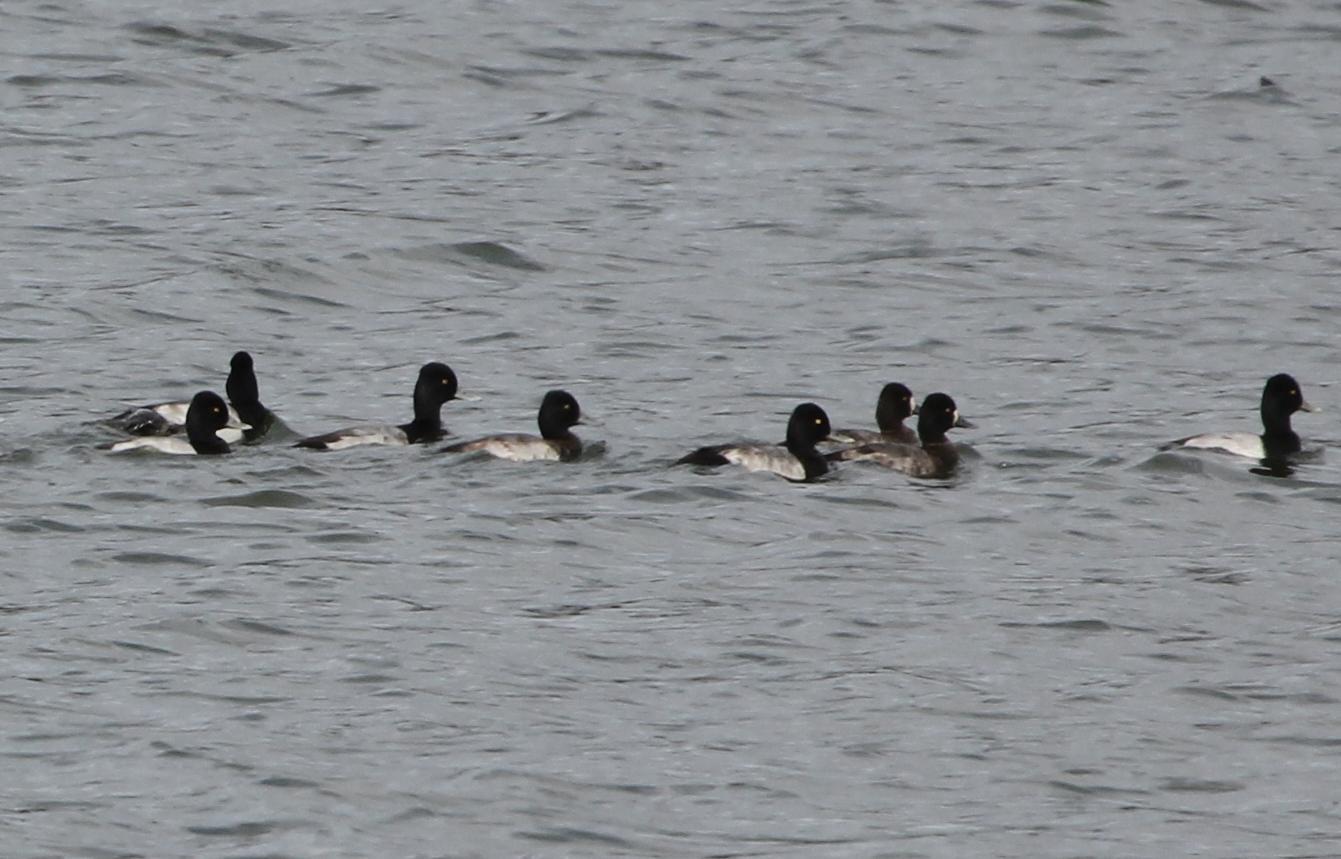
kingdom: Animalia
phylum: Chordata
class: Aves
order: Anseriformes
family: Anatidae
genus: Aythya
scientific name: Aythya affinis
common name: Lesser scaup
